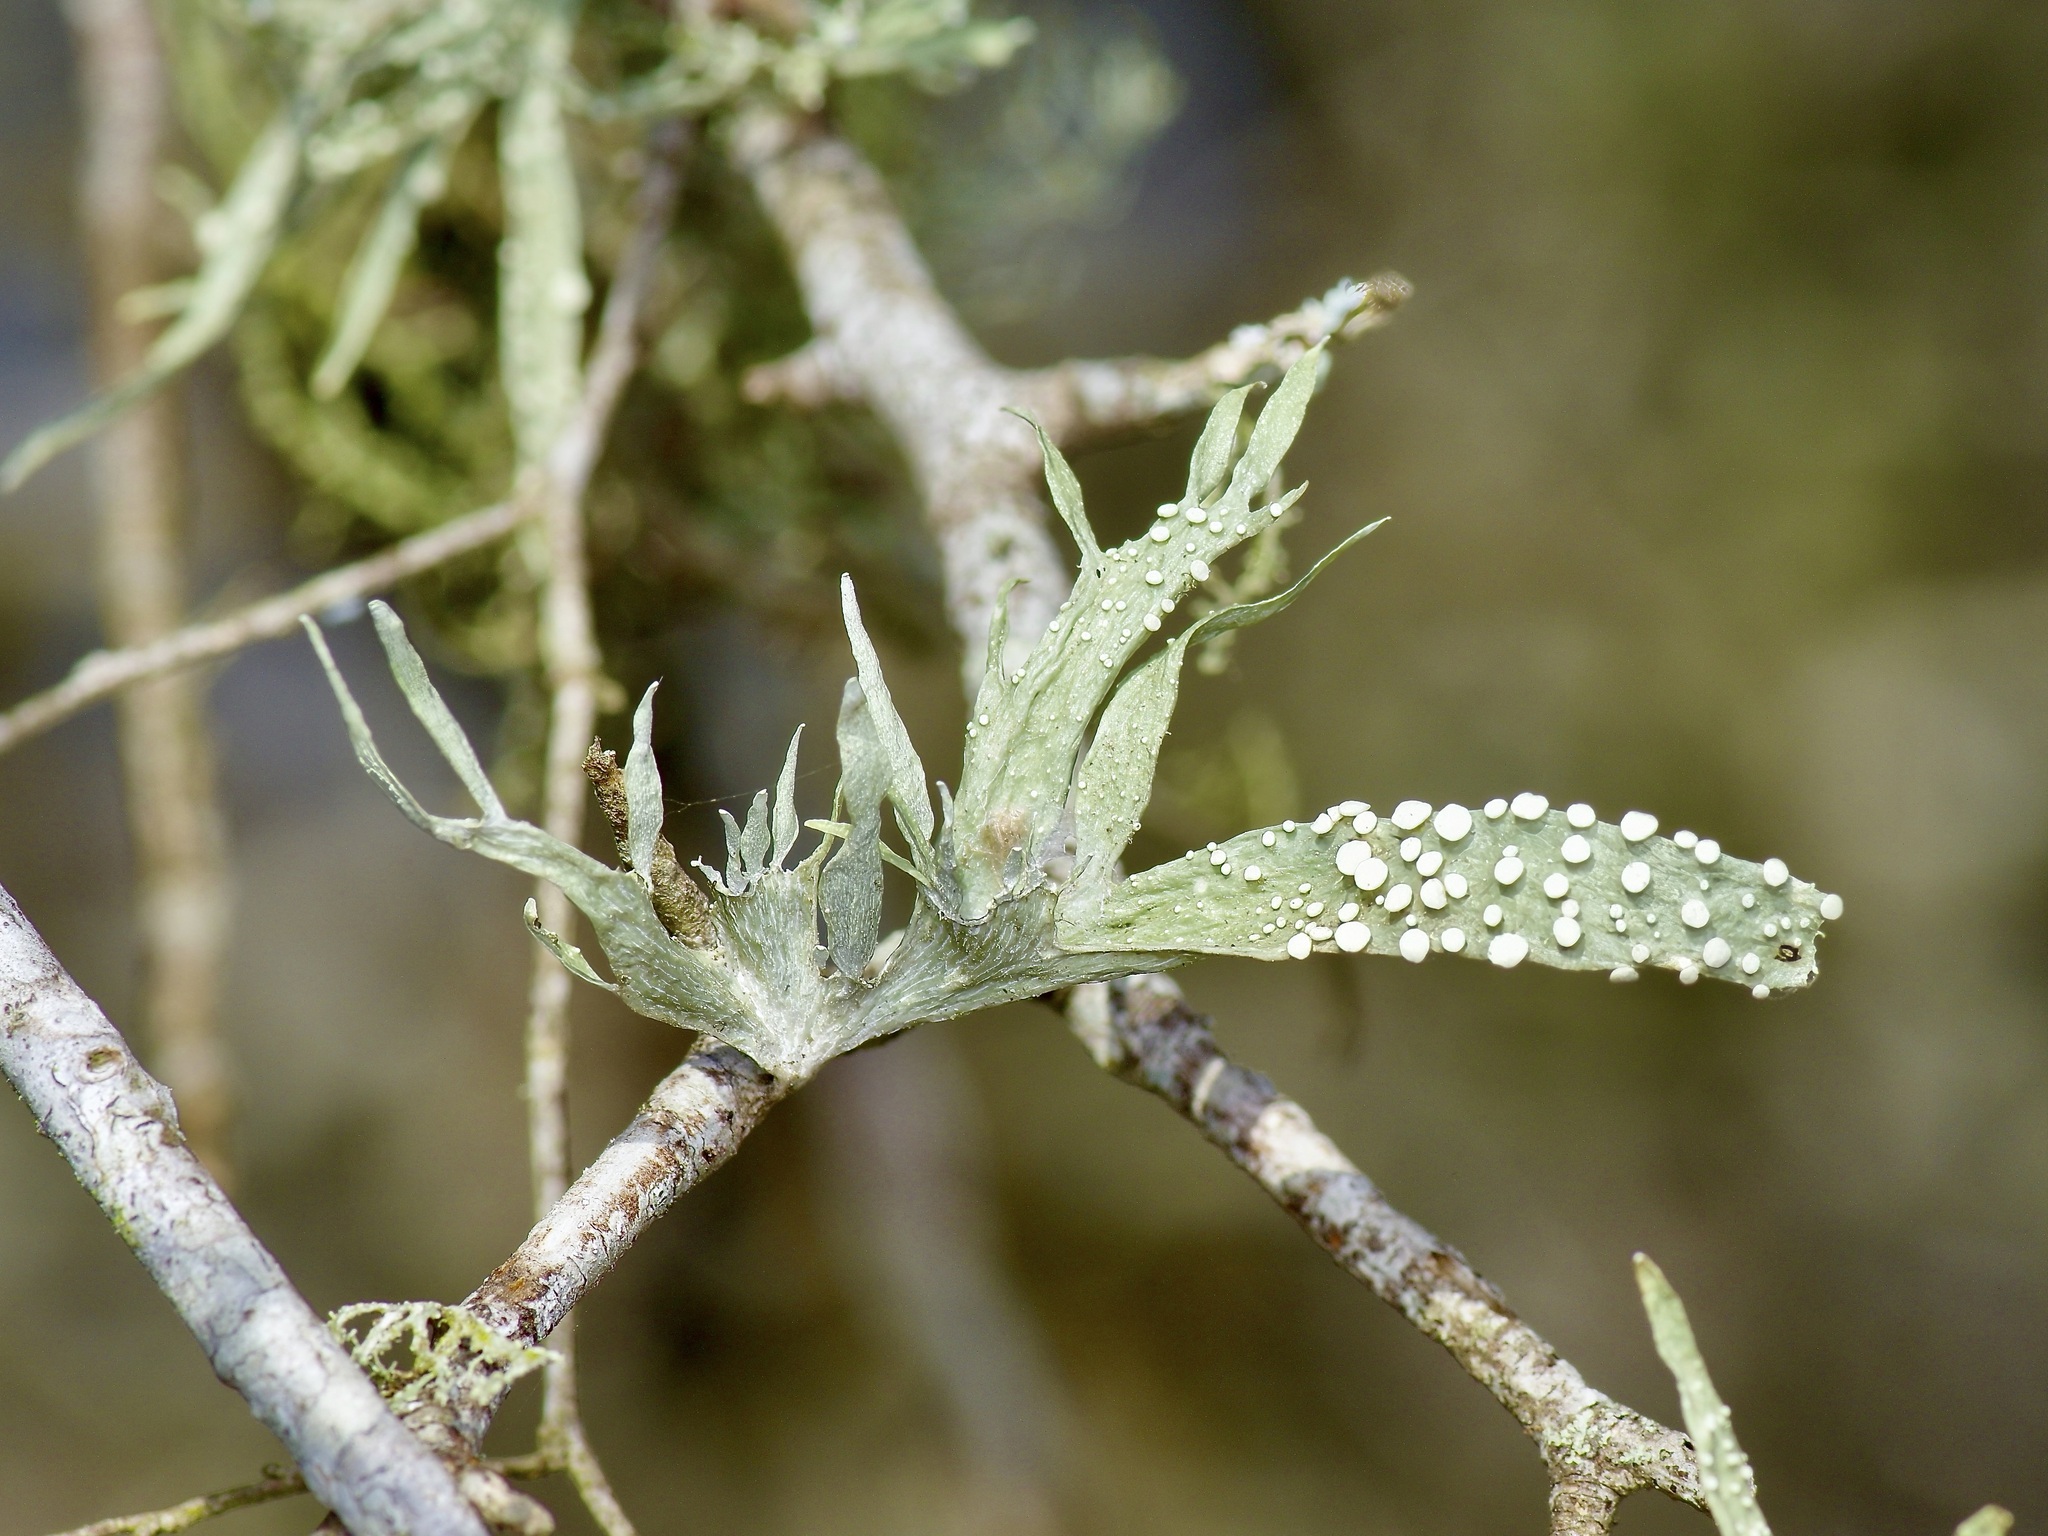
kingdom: Fungi
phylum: Ascomycota
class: Lecanoromycetes
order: Lecanorales
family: Ramalinaceae
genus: Ramalina
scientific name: Ramalina celastri
